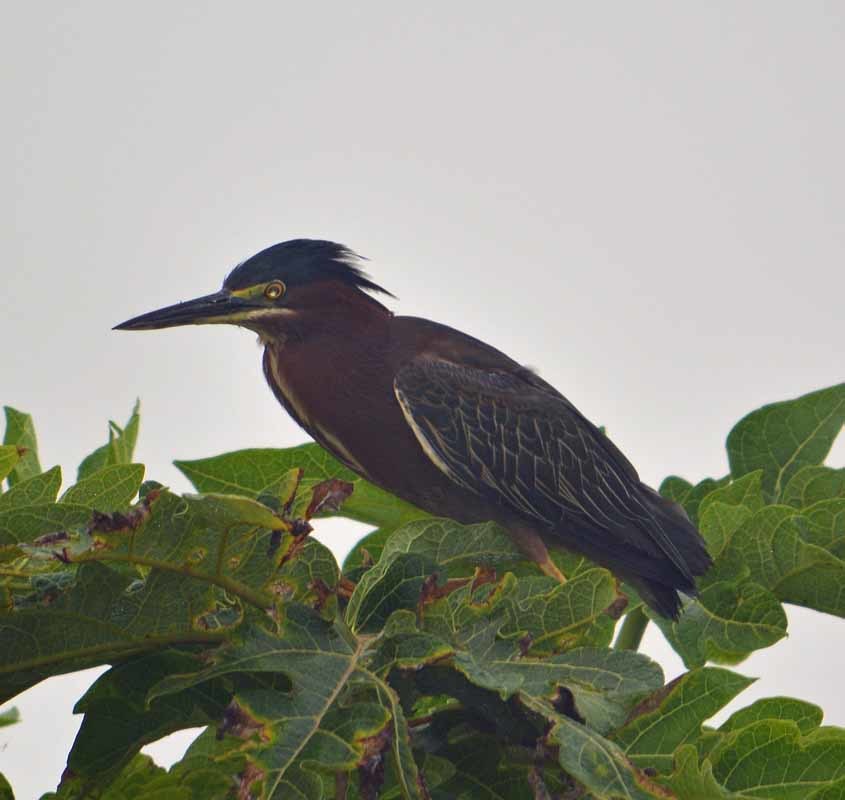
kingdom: Animalia
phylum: Chordata
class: Aves
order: Pelecaniformes
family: Ardeidae
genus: Butorides
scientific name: Butorides virescens
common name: Green heron
